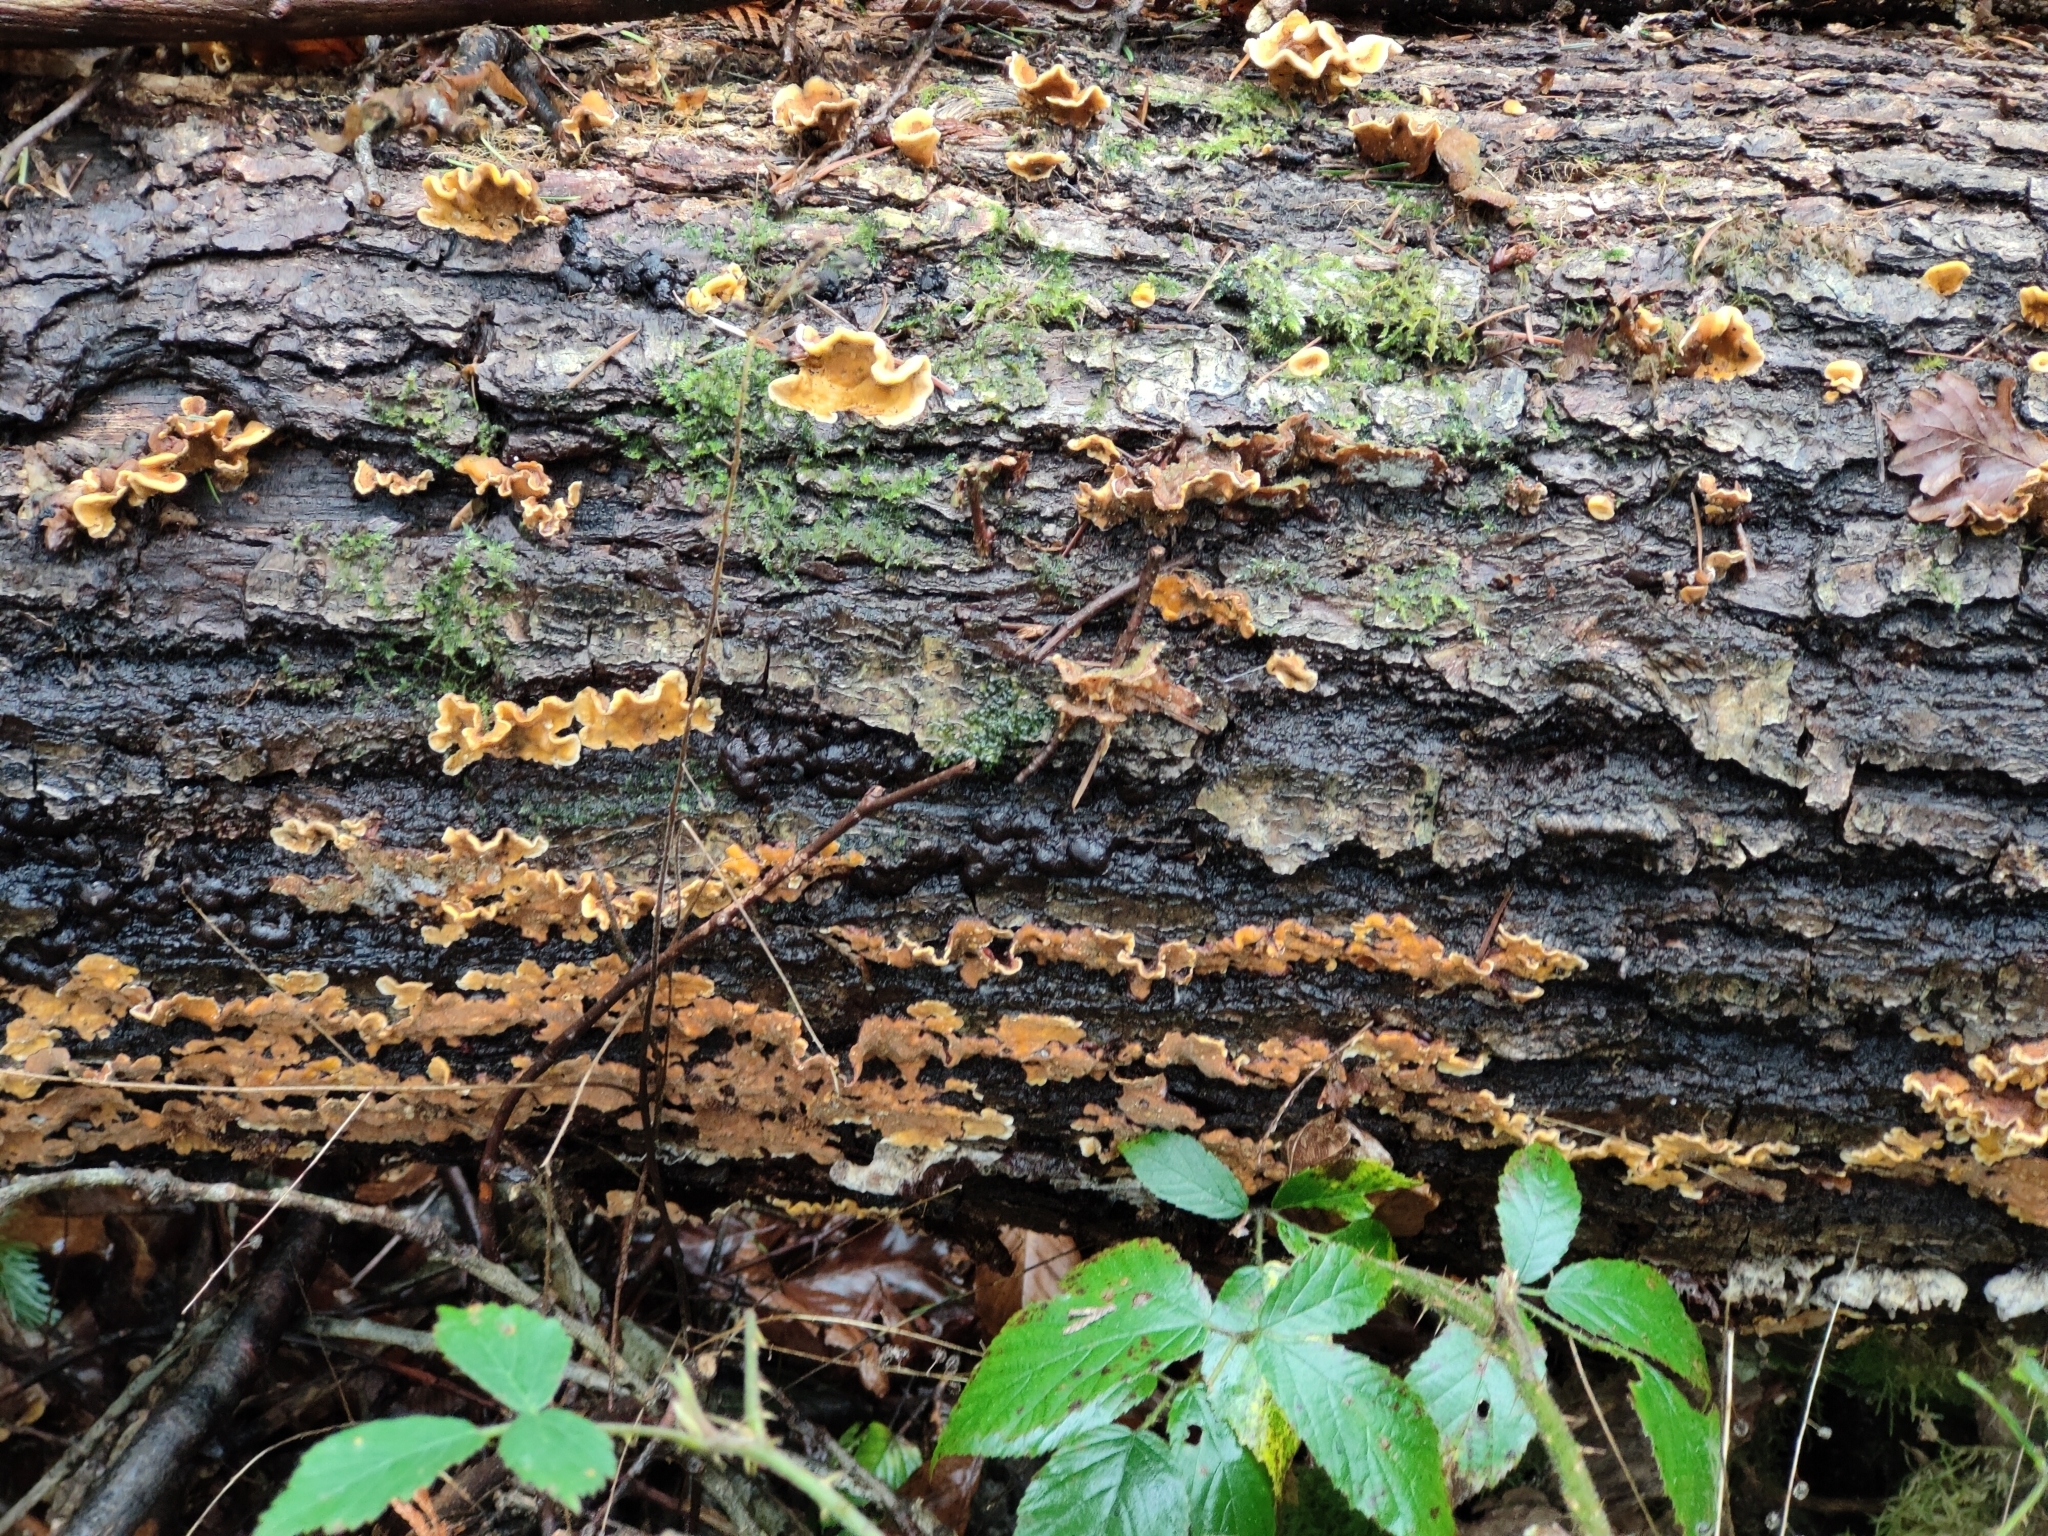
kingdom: Fungi
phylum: Basidiomycota
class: Agaricomycetes
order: Russulales
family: Stereaceae
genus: Stereum
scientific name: Stereum hirsutum
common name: Hairy curtain crust
